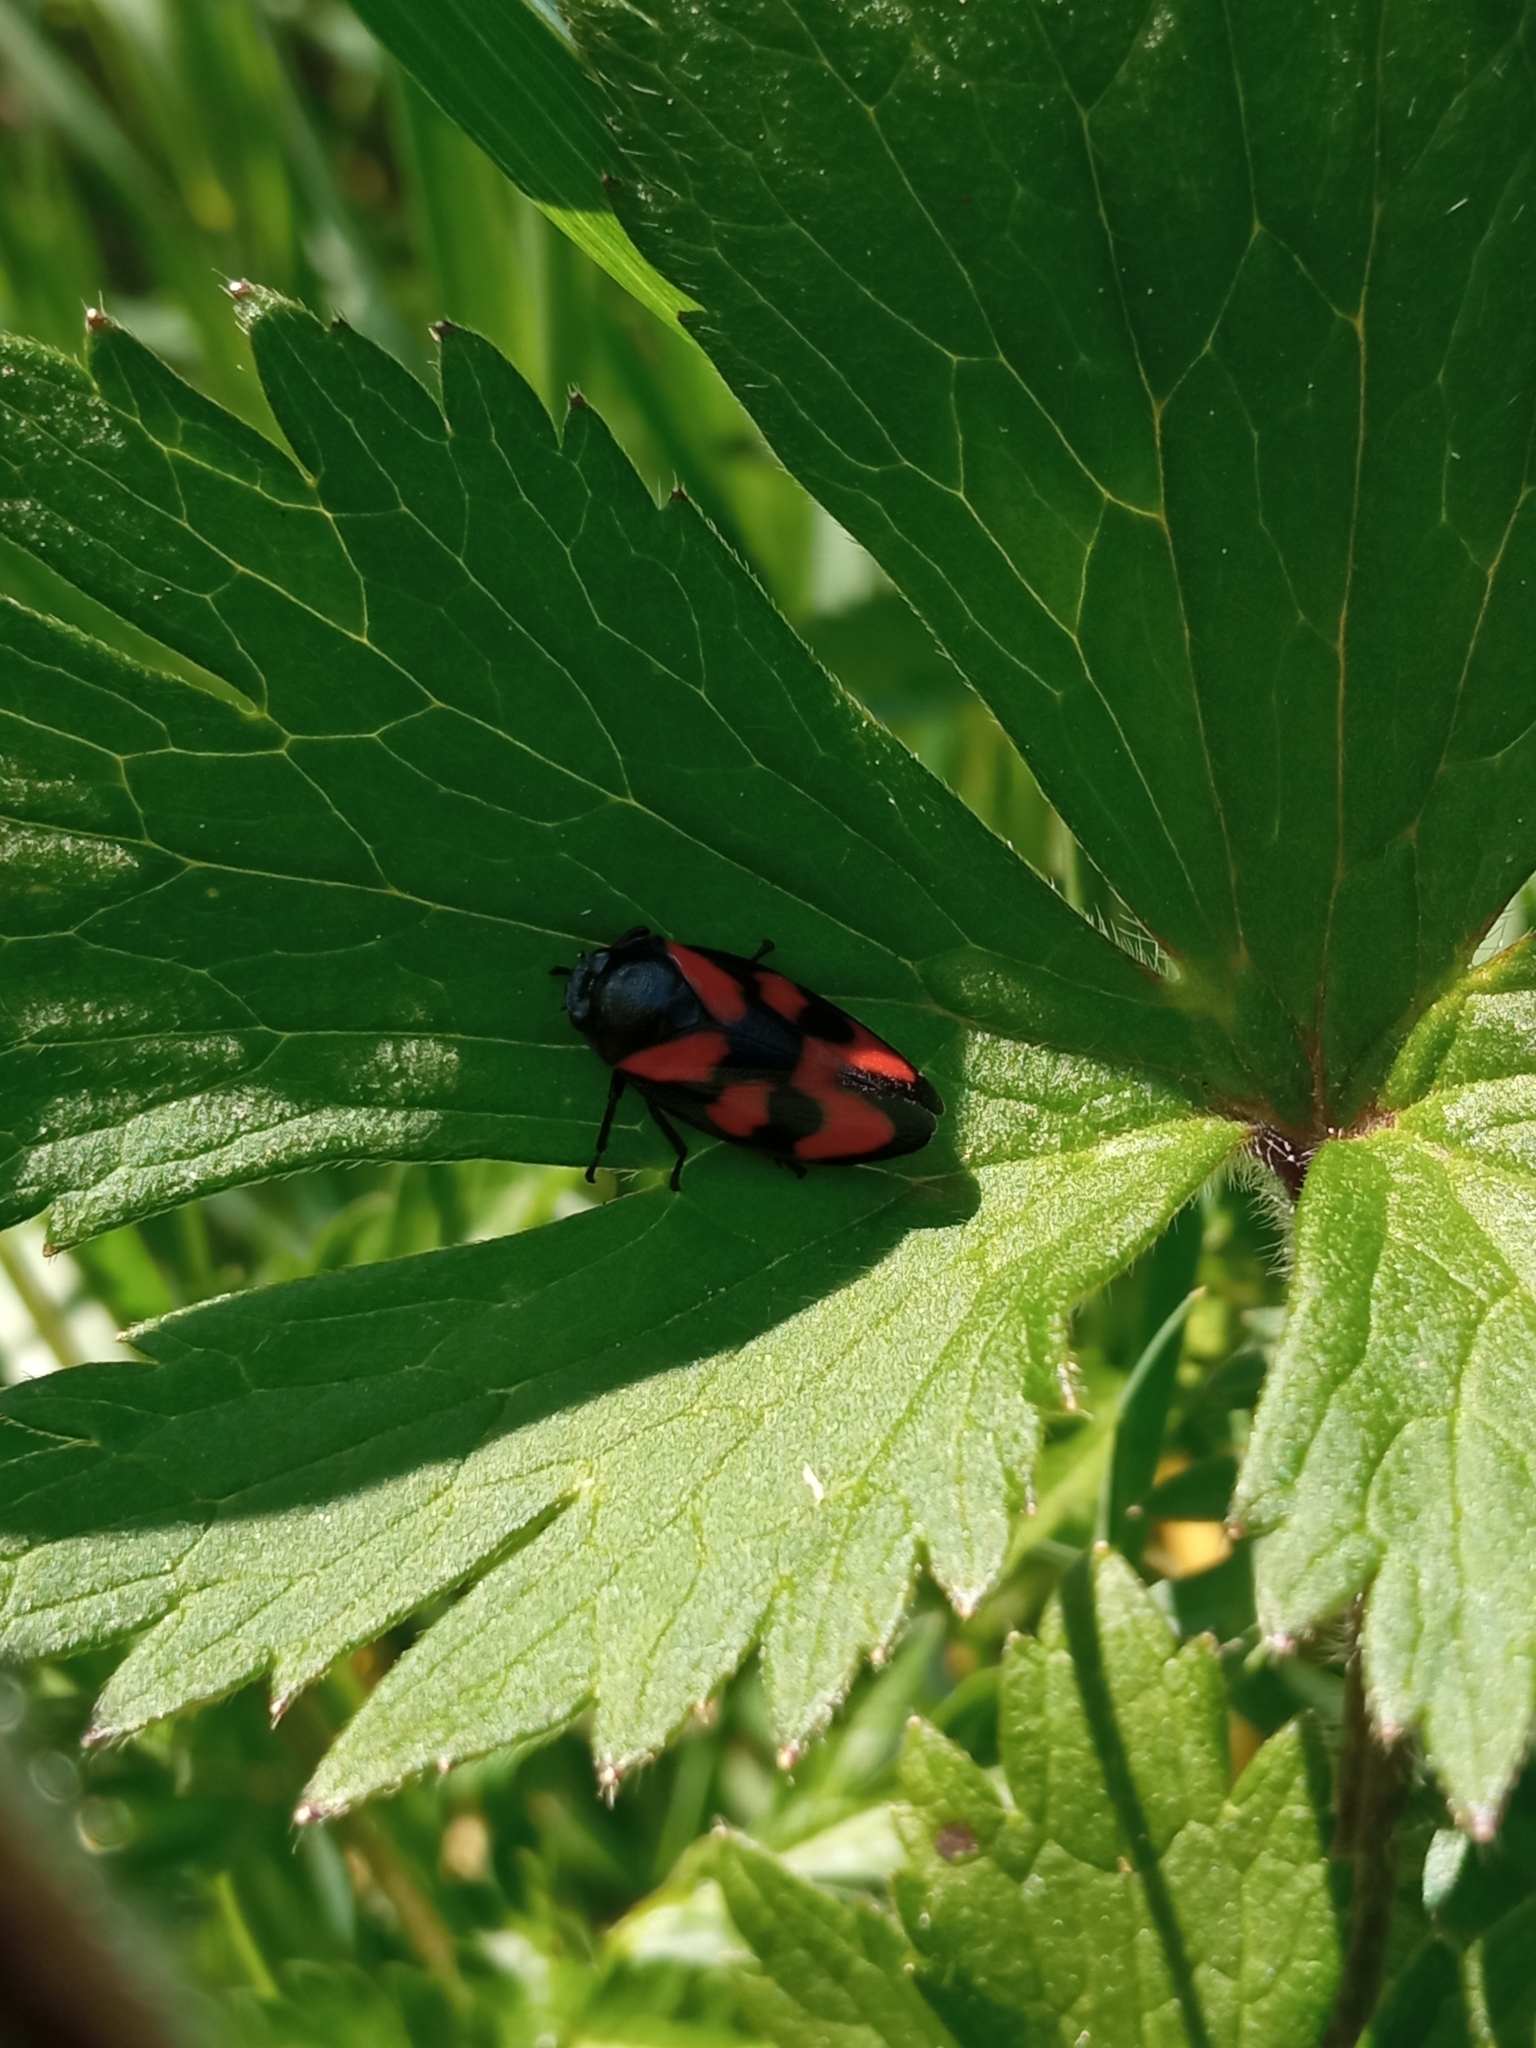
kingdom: Animalia
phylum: Arthropoda
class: Insecta
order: Hemiptera
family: Cercopidae
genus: Cercopis
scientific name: Cercopis vulnerata
